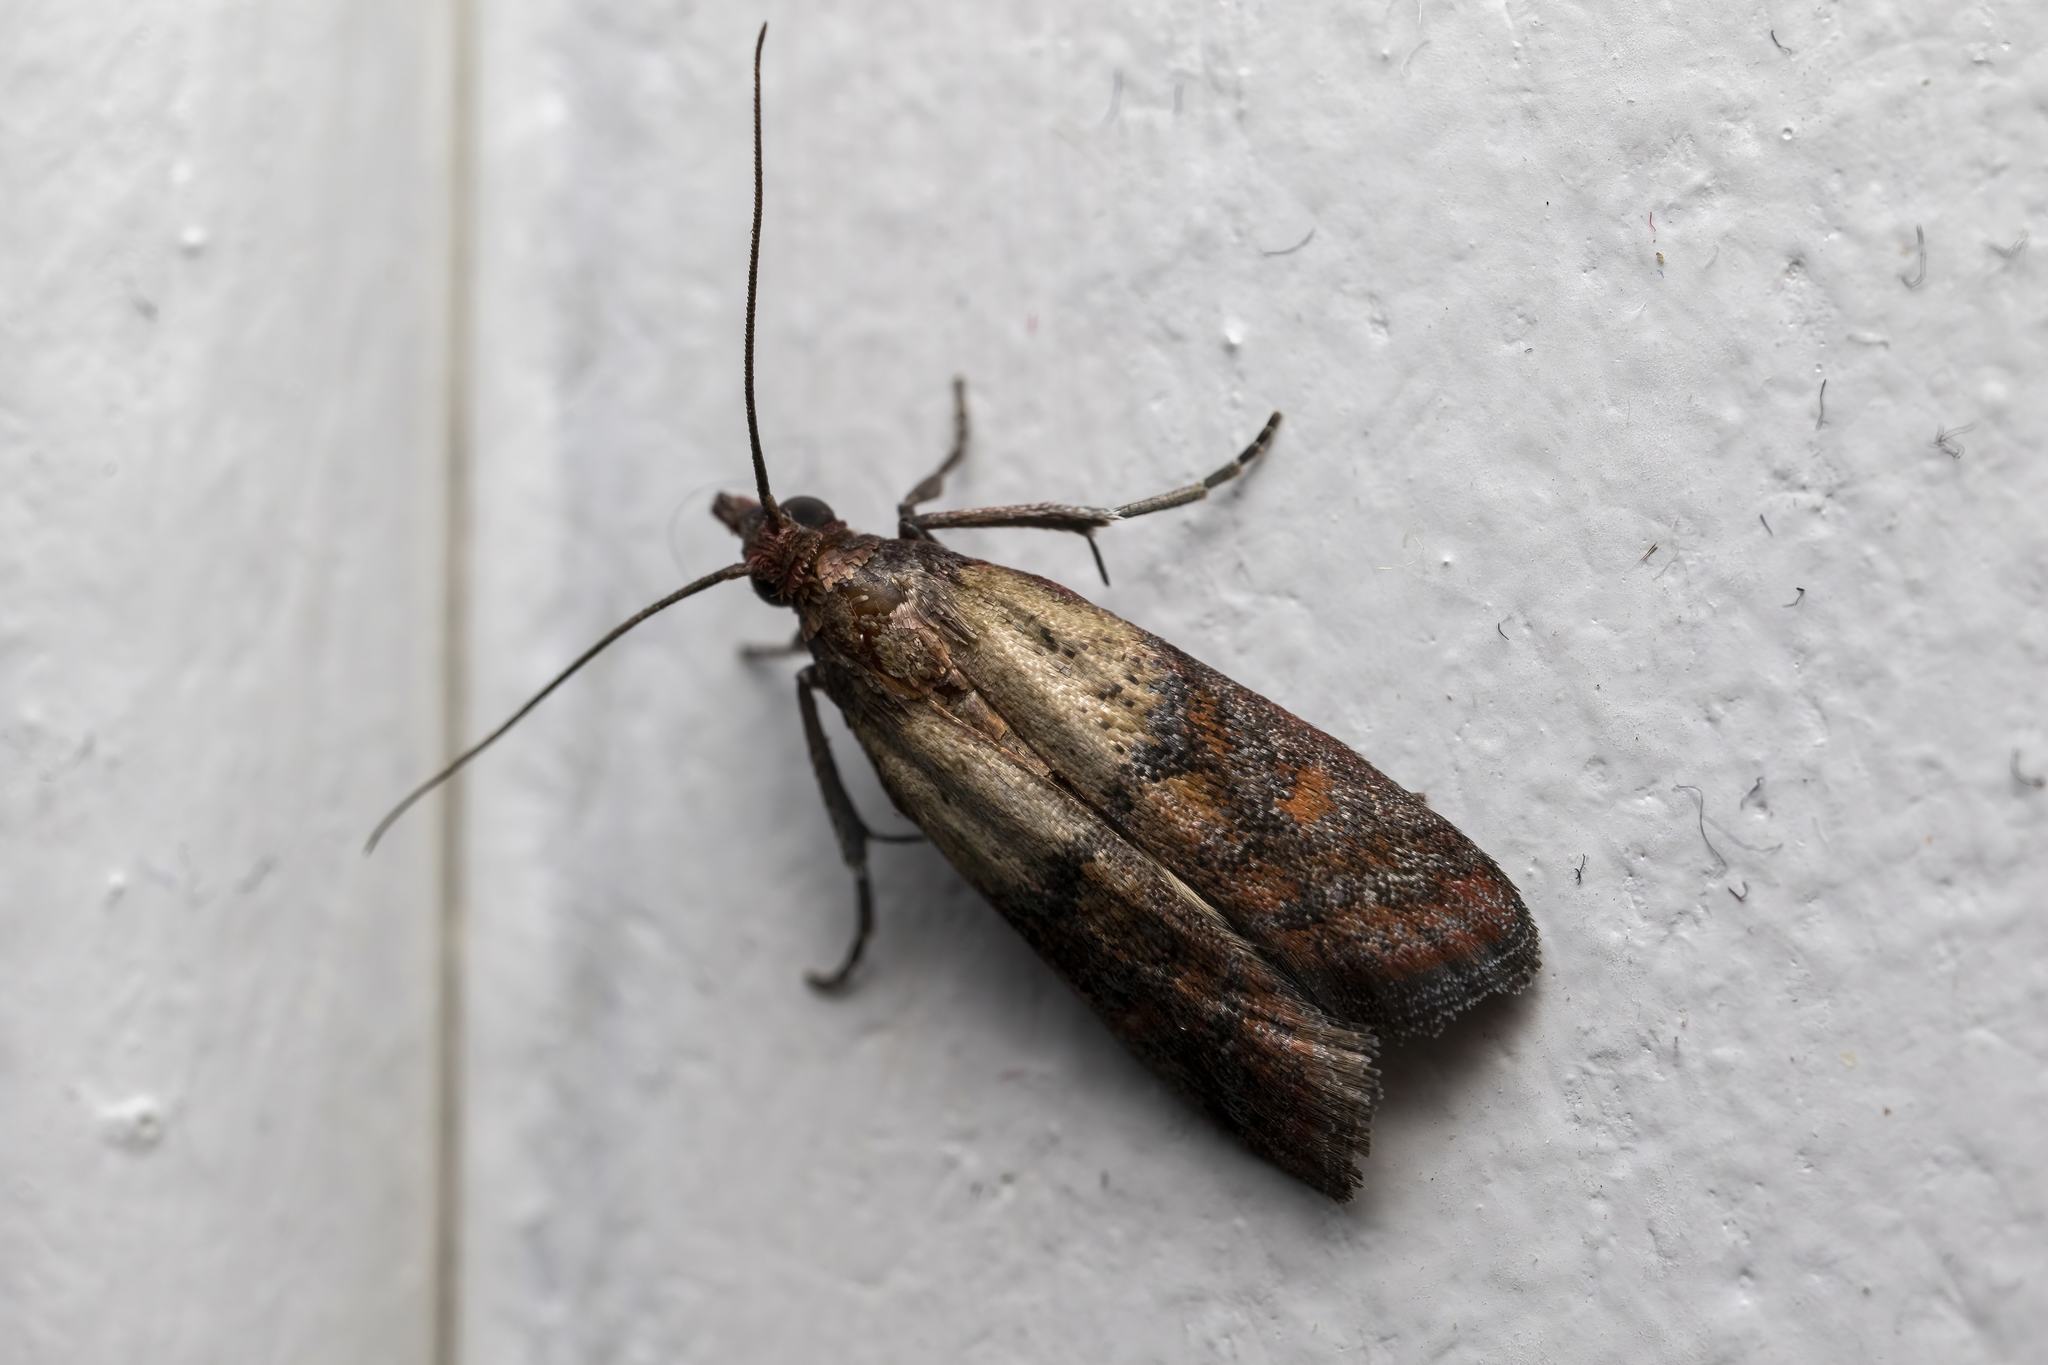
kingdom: Animalia
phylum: Arthropoda
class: Insecta
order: Lepidoptera
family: Pyralidae
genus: Plodia
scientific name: Plodia interpunctella
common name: Indian meal moth
